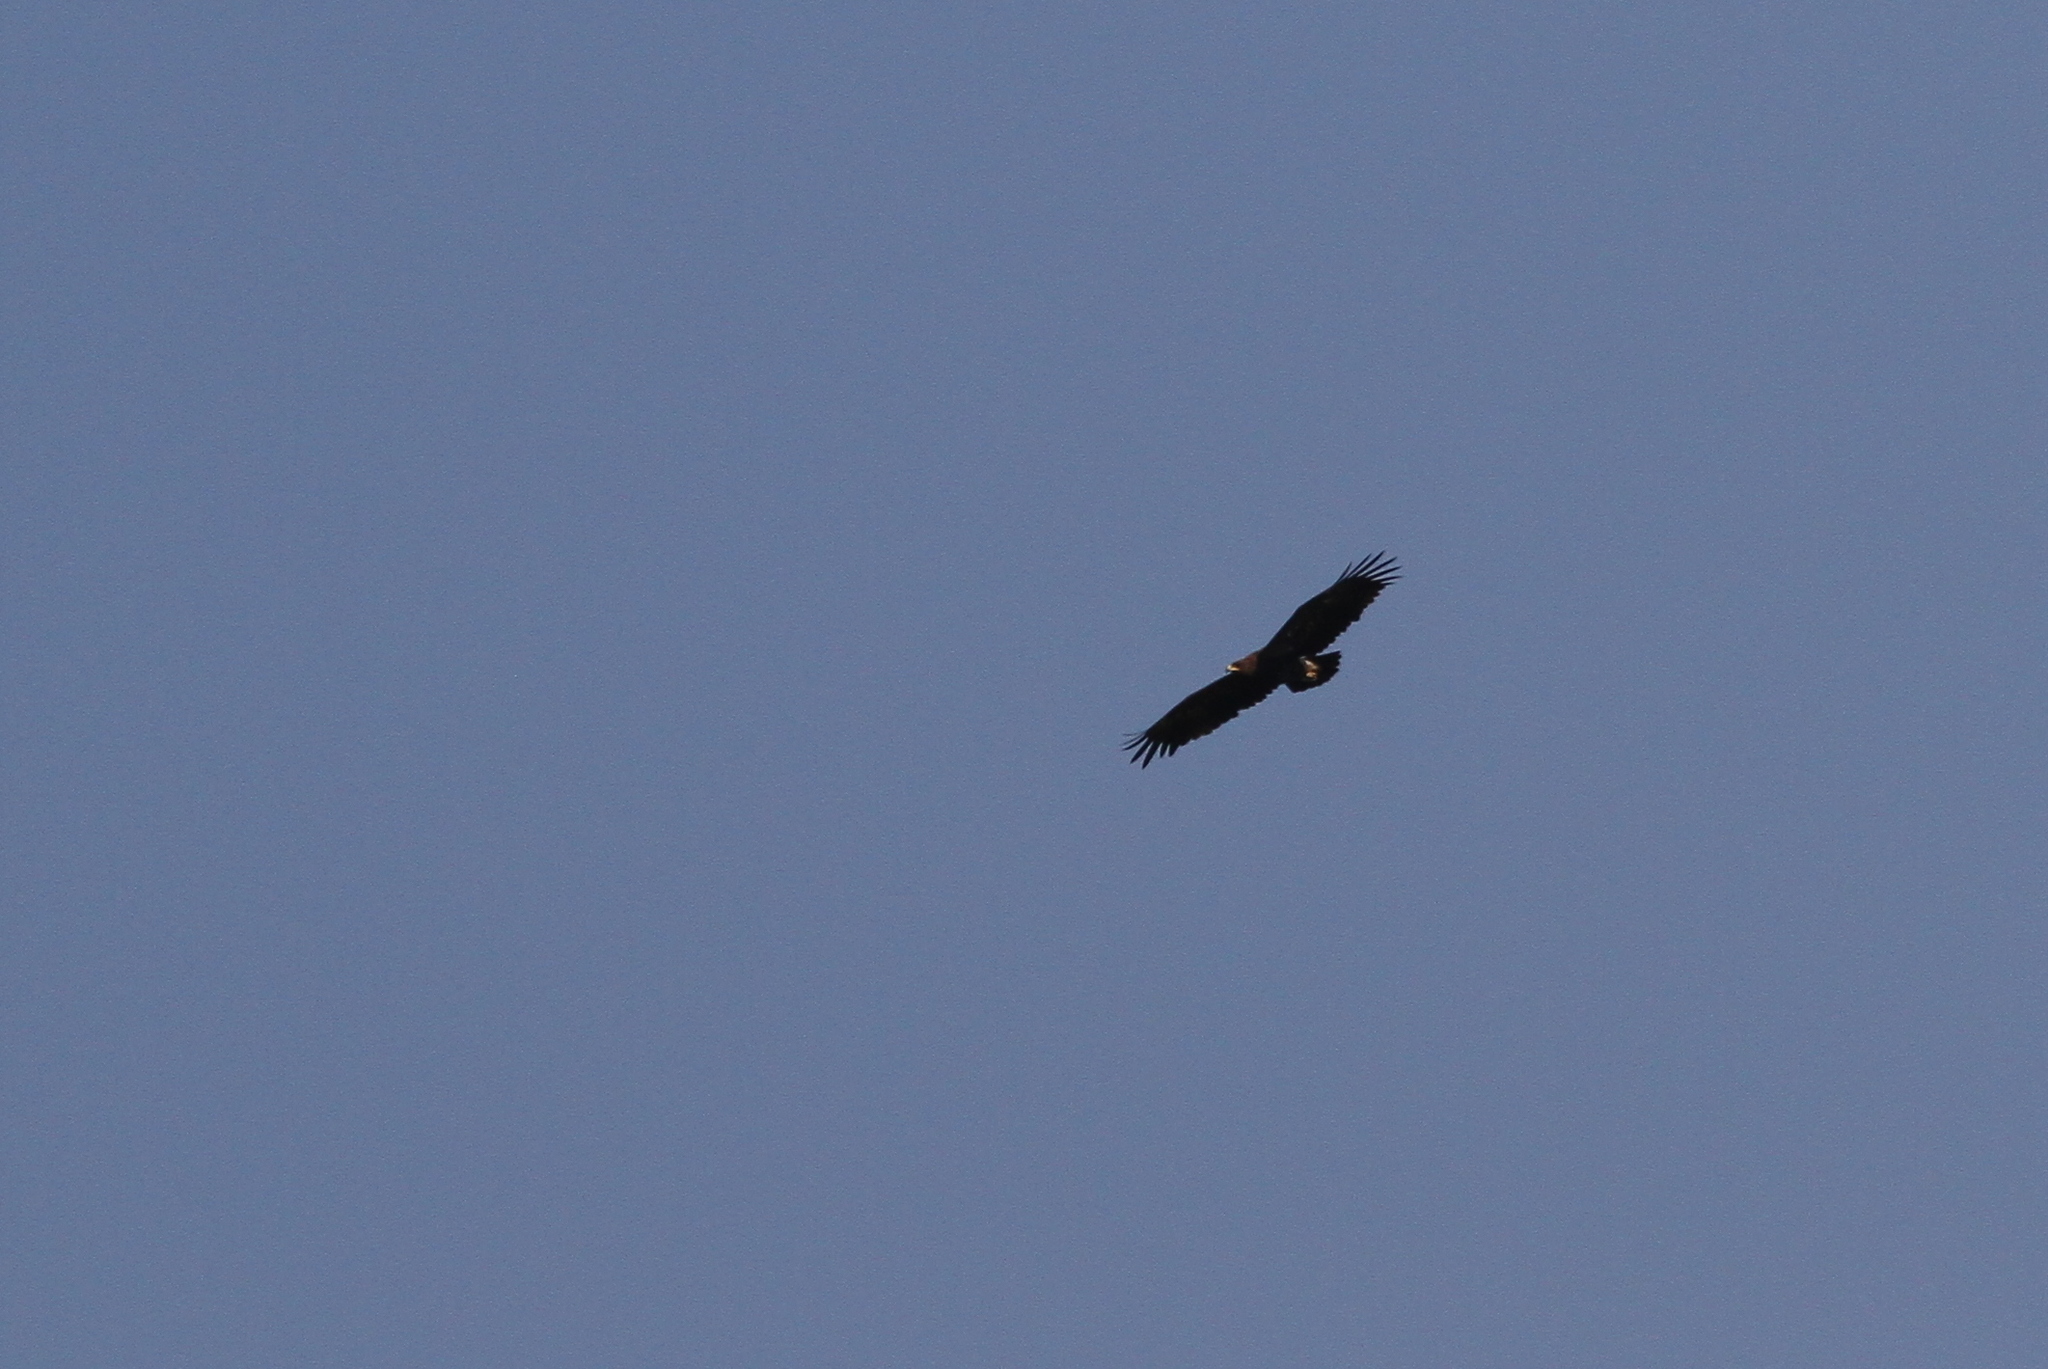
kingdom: Animalia
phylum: Chordata
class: Aves
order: Accipitriformes
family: Accipitridae
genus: Aquila
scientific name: Aquila clanga
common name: Greater spotted eagle
